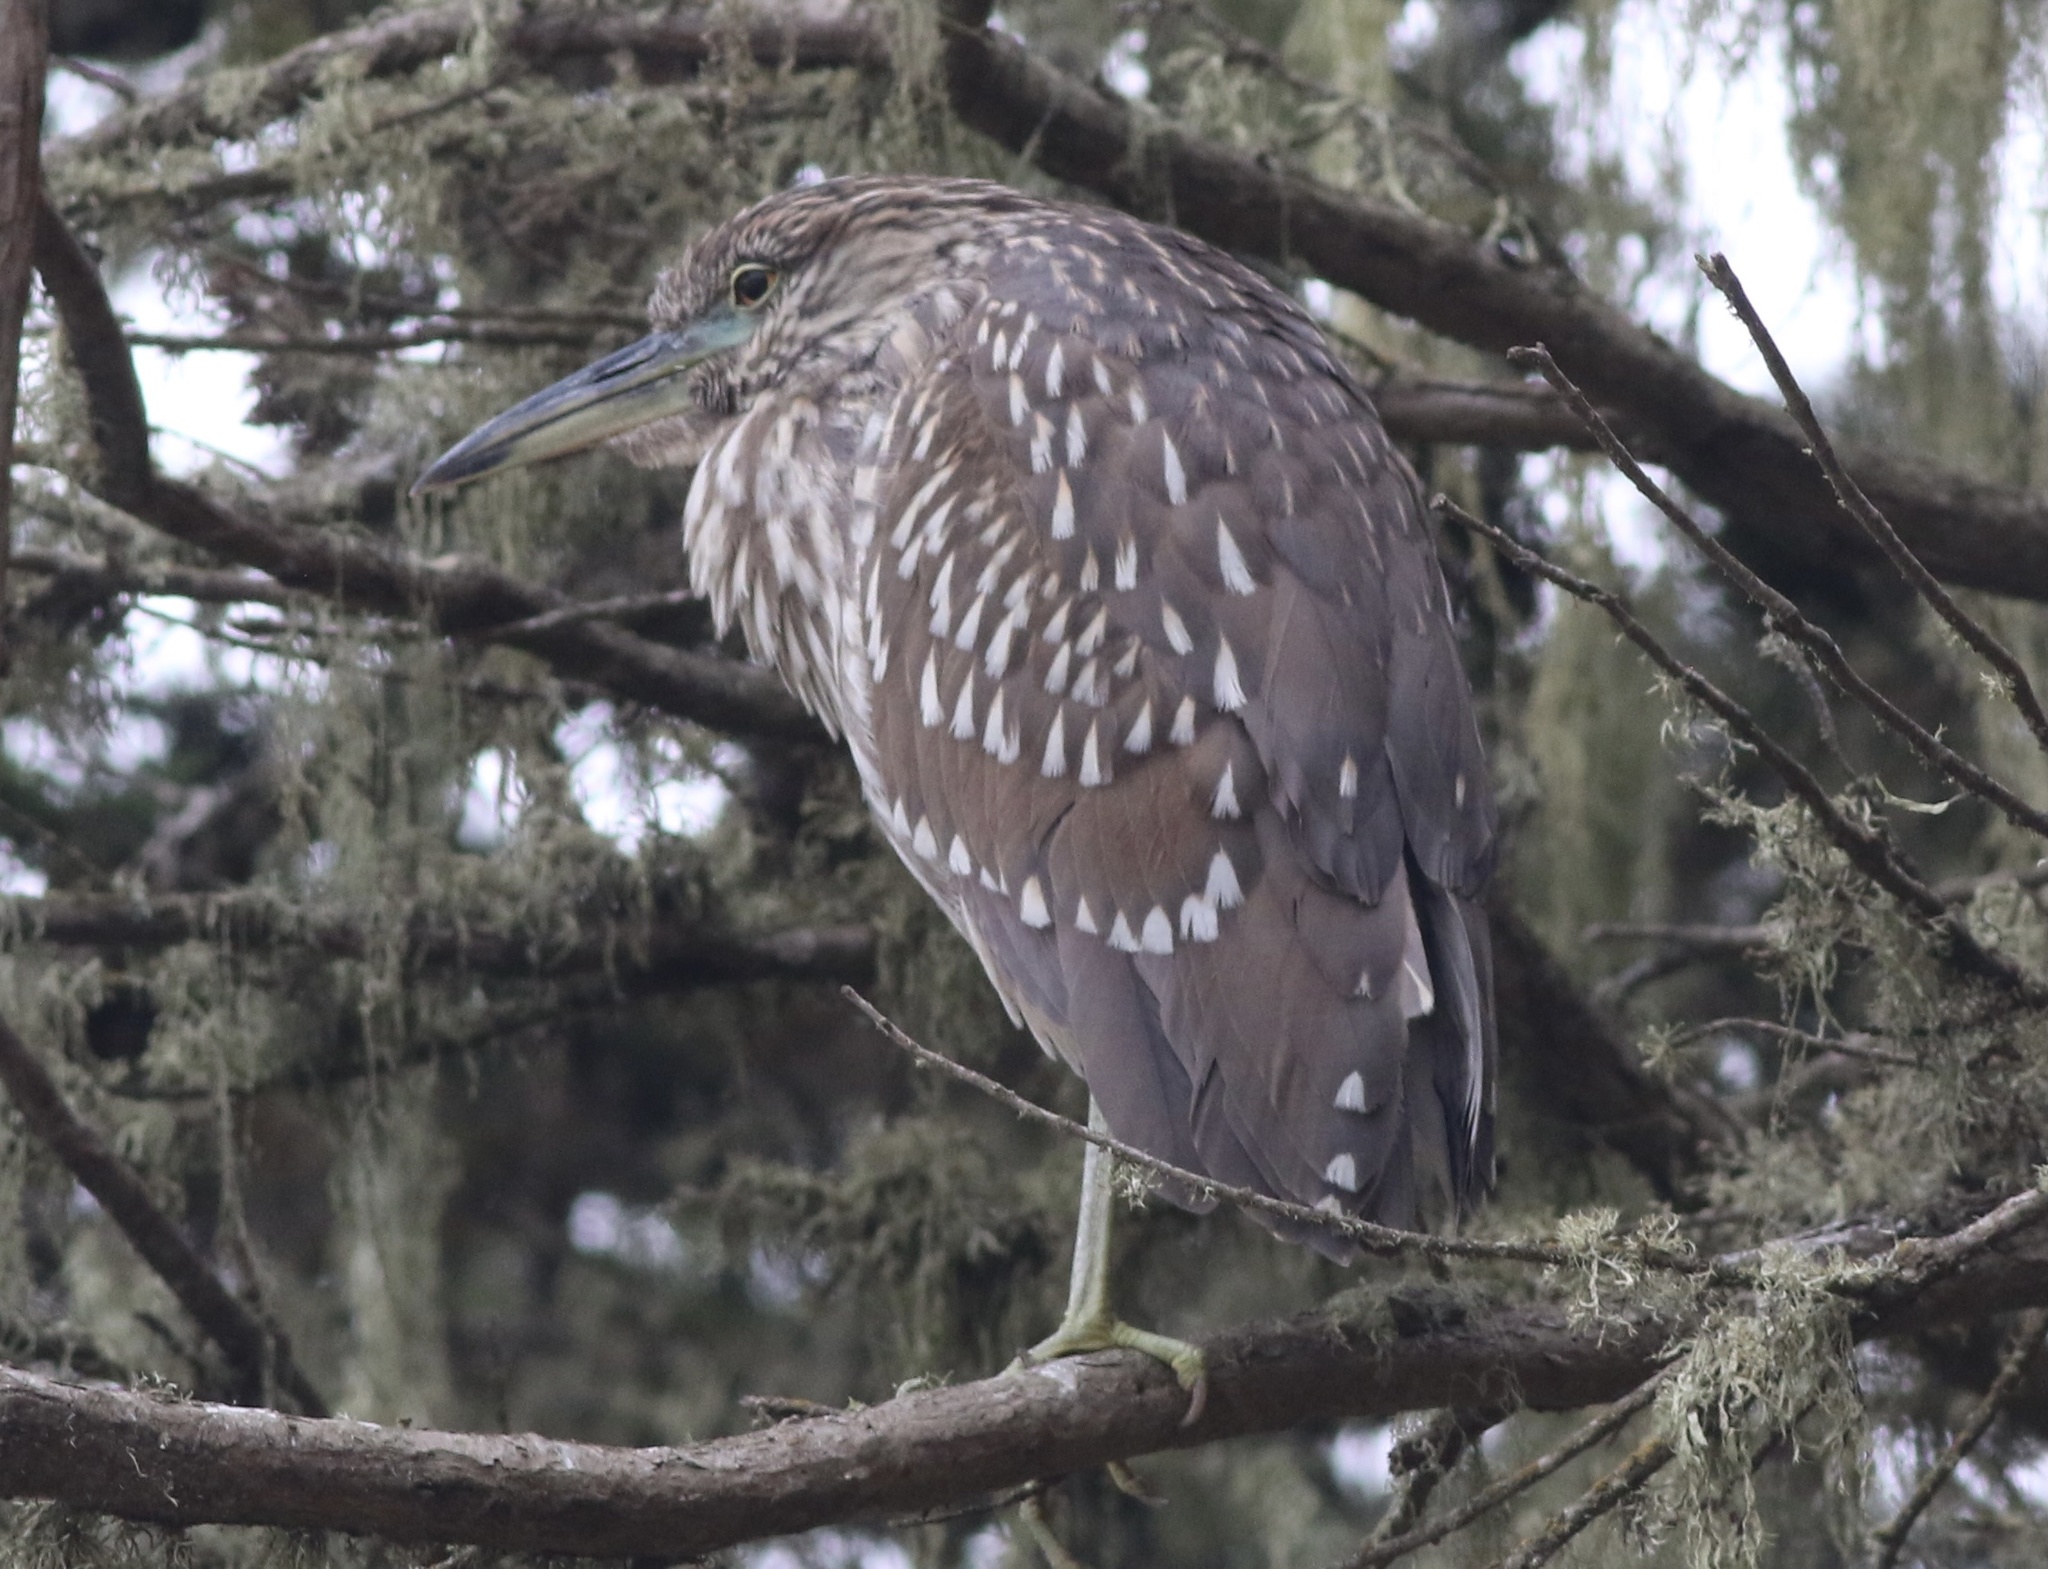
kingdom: Animalia
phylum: Chordata
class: Aves
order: Pelecaniformes
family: Ardeidae
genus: Nycticorax
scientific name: Nycticorax nycticorax
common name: Black-crowned night heron
